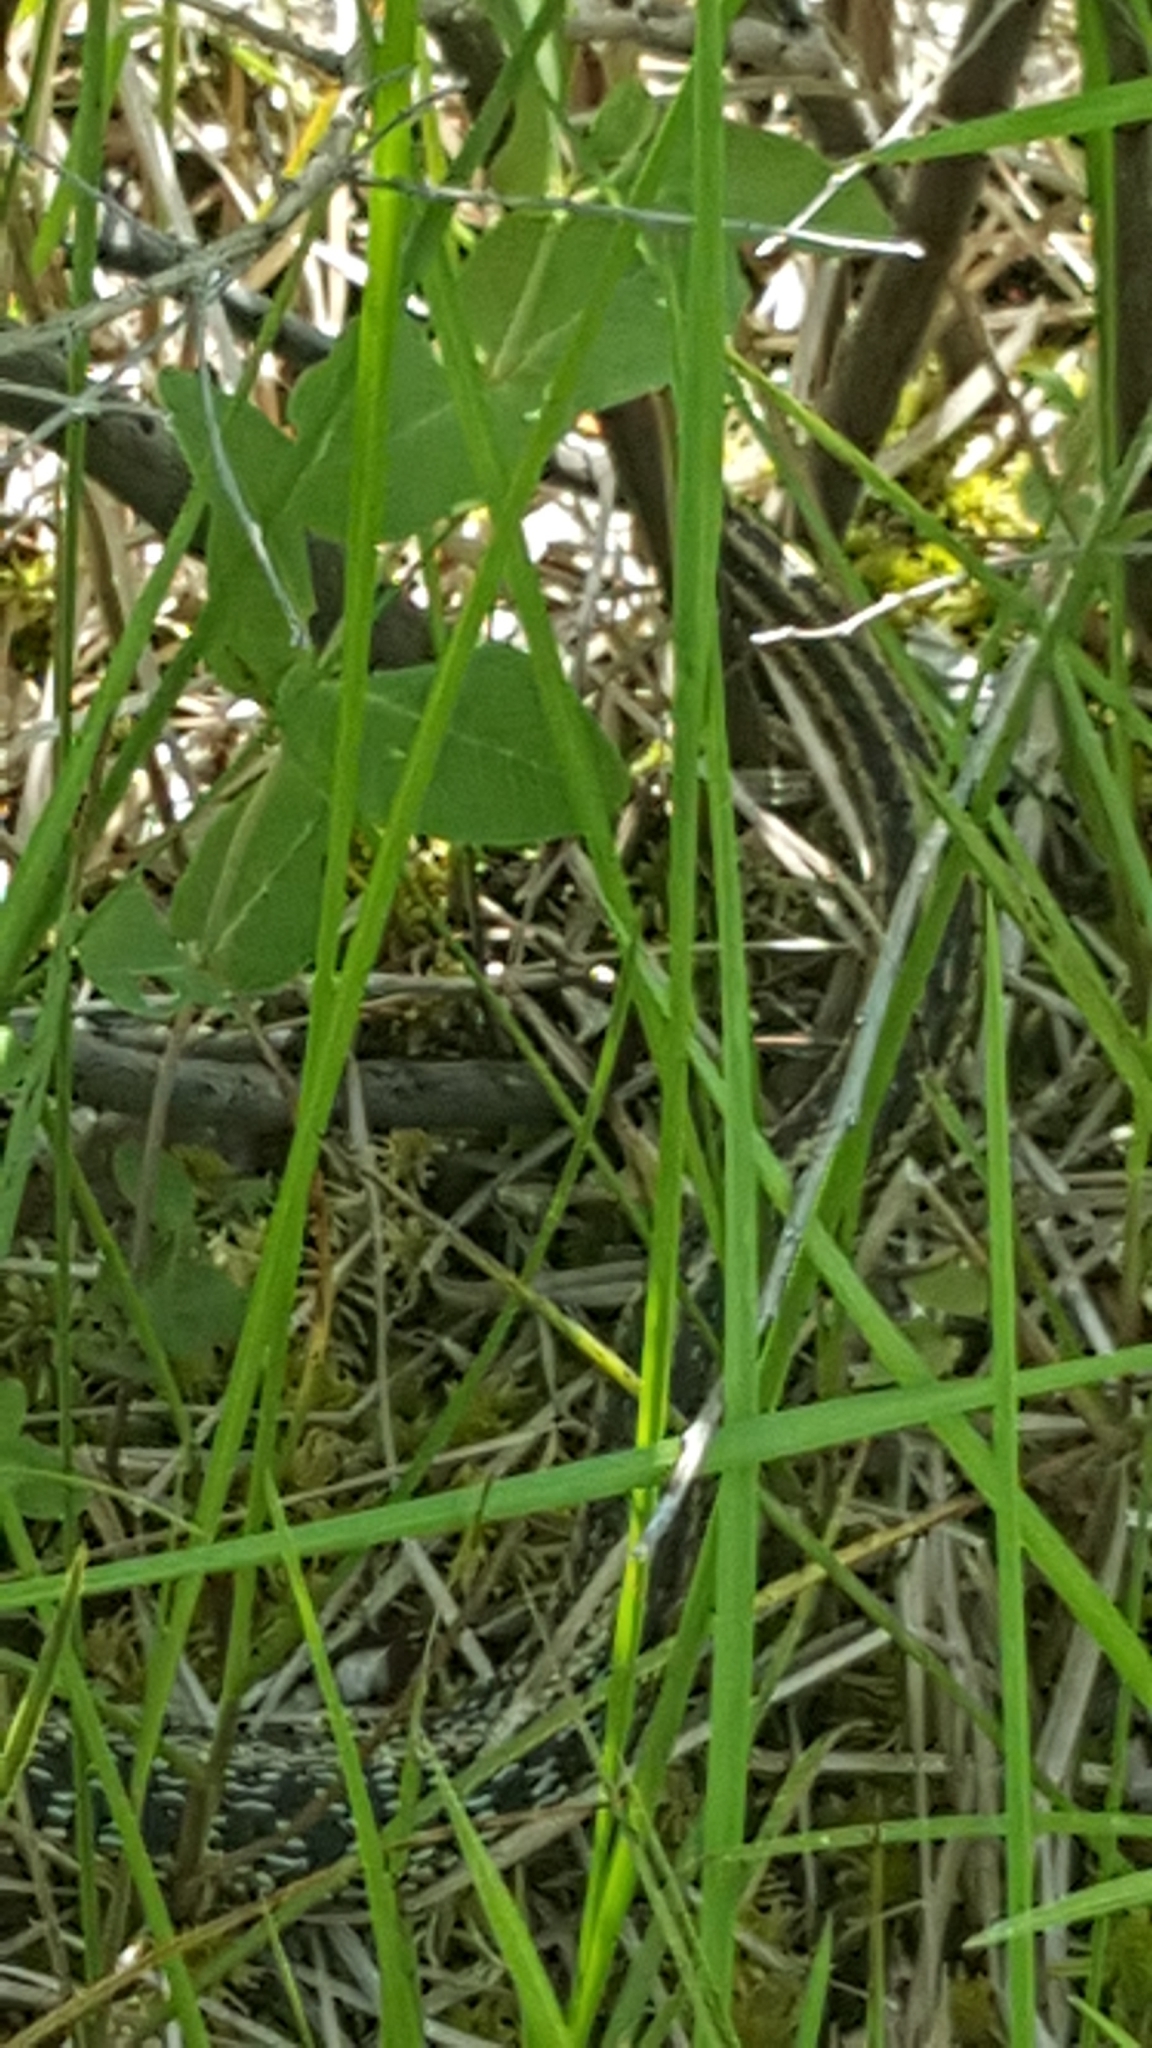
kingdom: Animalia
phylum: Chordata
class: Squamata
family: Colubridae
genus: Thamnophis
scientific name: Thamnophis sirtalis
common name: Common garter snake
